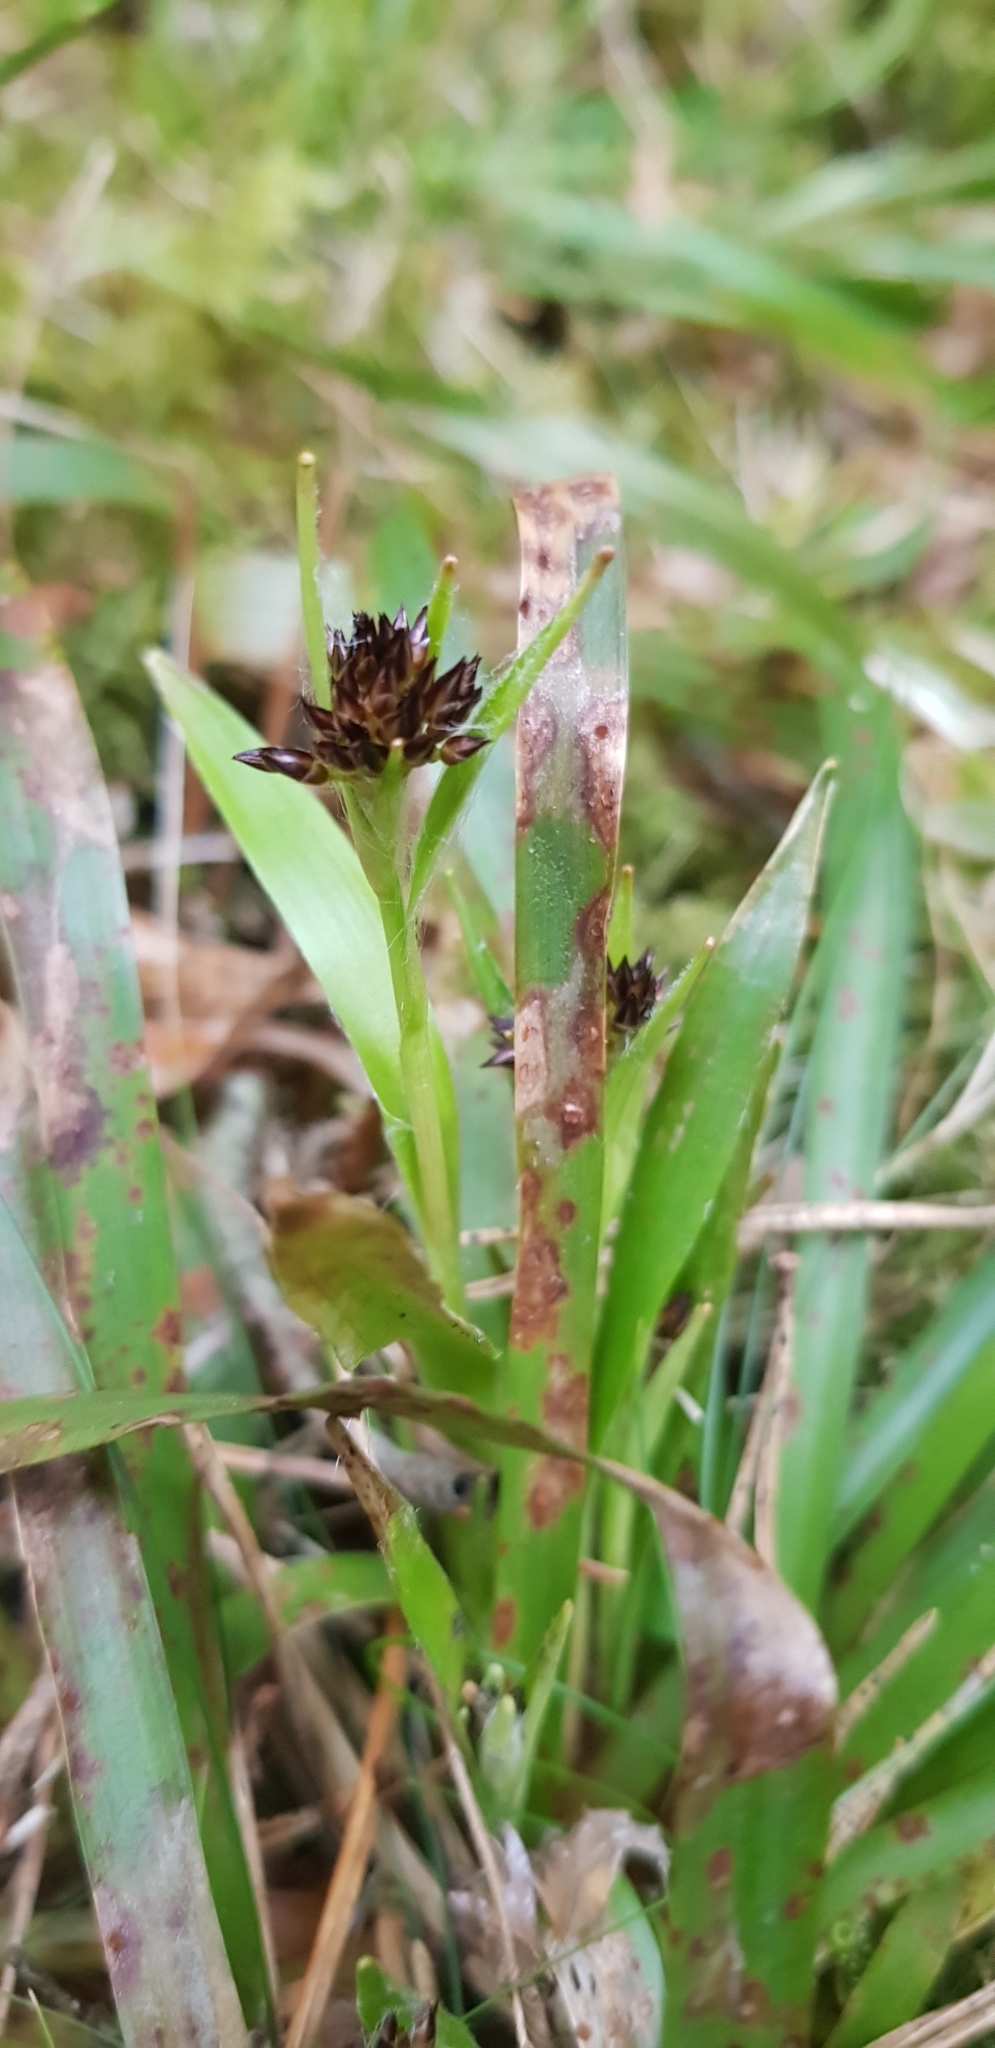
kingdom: Plantae
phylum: Tracheophyta
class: Liliopsida
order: Poales
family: Juncaceae
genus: Luzula
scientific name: Luzula pilosa
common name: Hairy wood-rush
